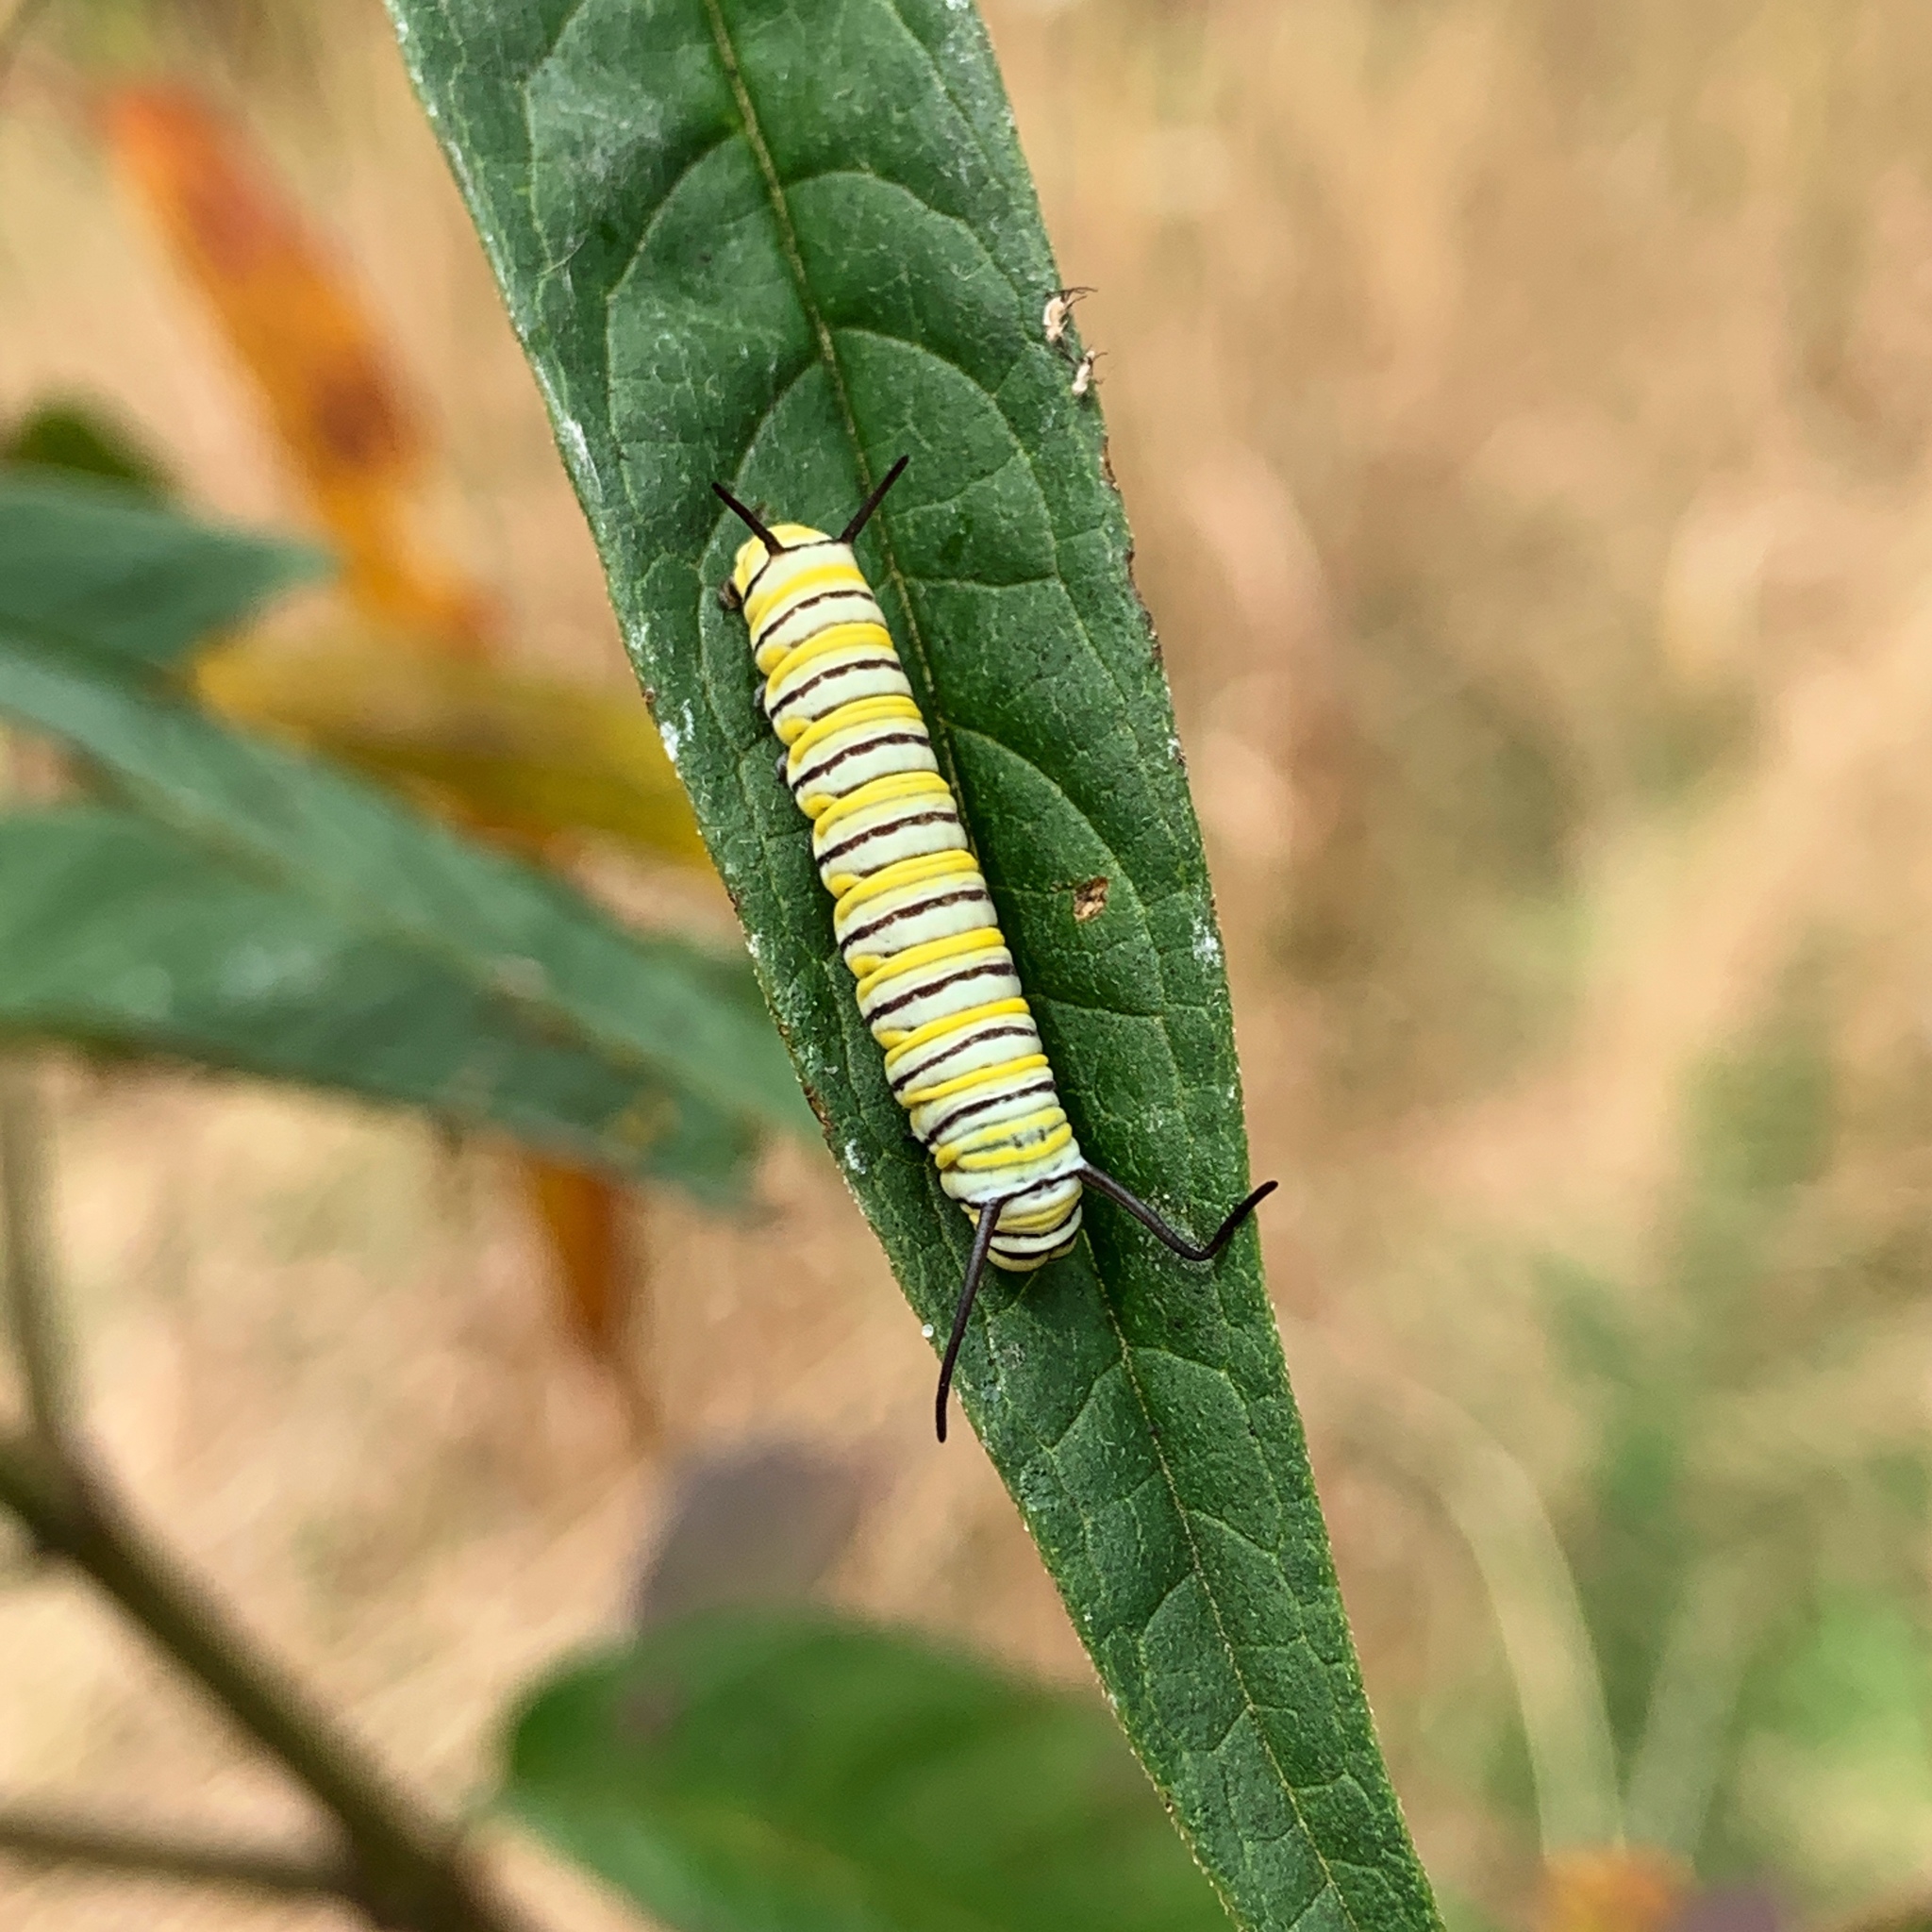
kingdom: Animalia
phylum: Arthropoda
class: Insecta
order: Lepidoptera
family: Nymphalidae
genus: Danaus
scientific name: Danaus plexippus
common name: Monarch
